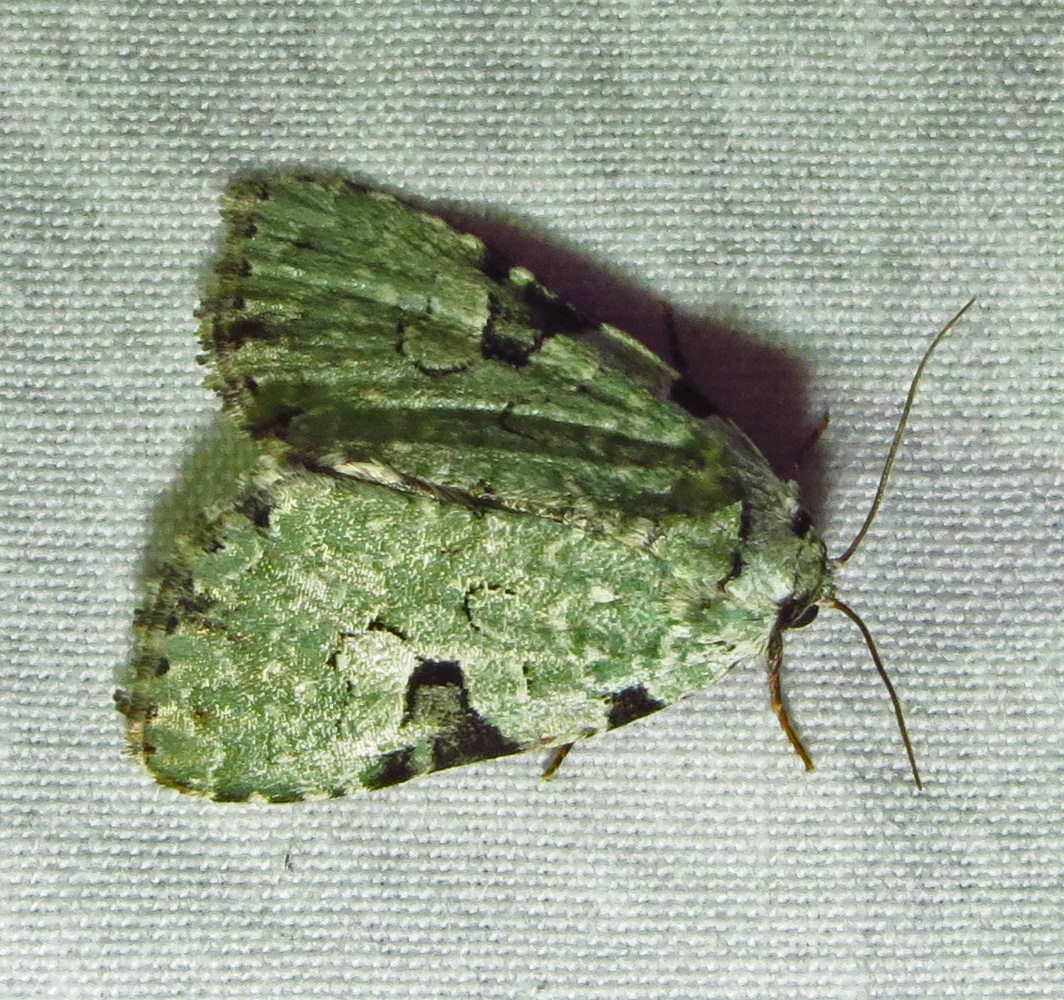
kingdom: Animalia
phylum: Arthropoda
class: Insecta
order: Lepidoptera
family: Noctuidae
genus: Leuconycta
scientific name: Leuconycta diphteroides
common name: Green leuconycta moth
